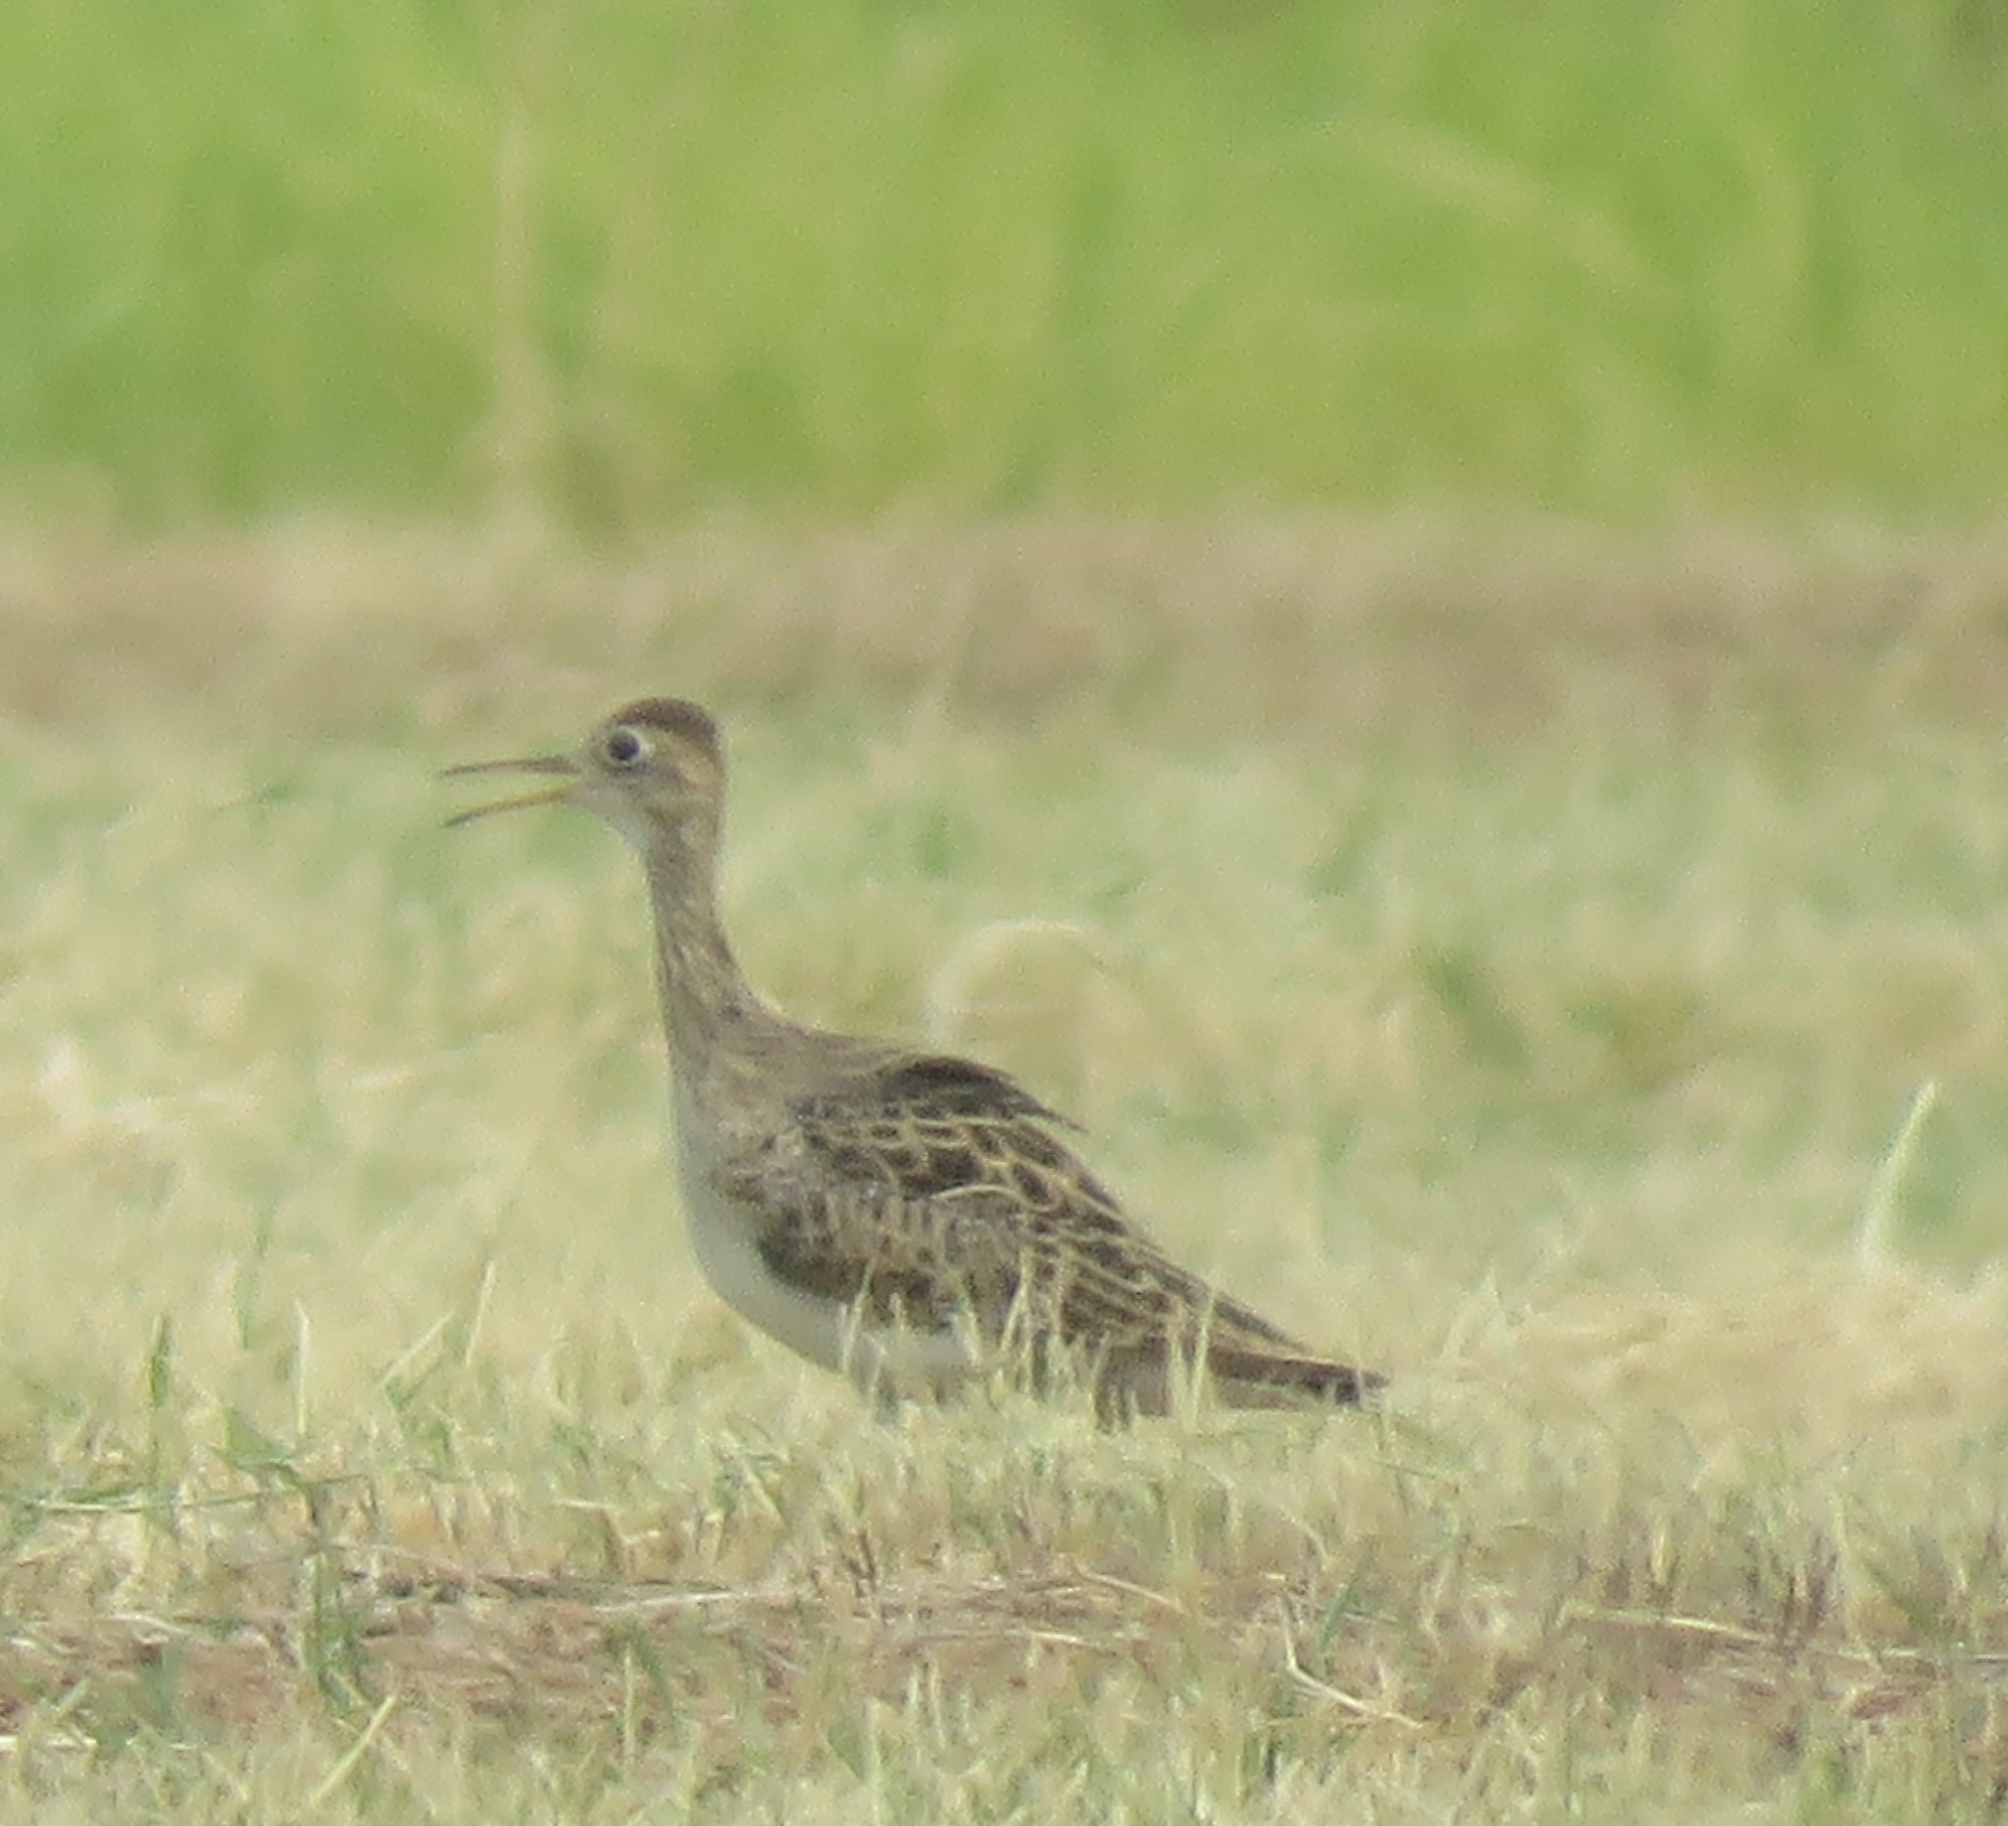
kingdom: Animalia
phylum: Chordata
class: Aves
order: Charadriiformes
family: Scolopacidae
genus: Bartramia
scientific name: Bartramia longicauda
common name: Upland sandpiper
